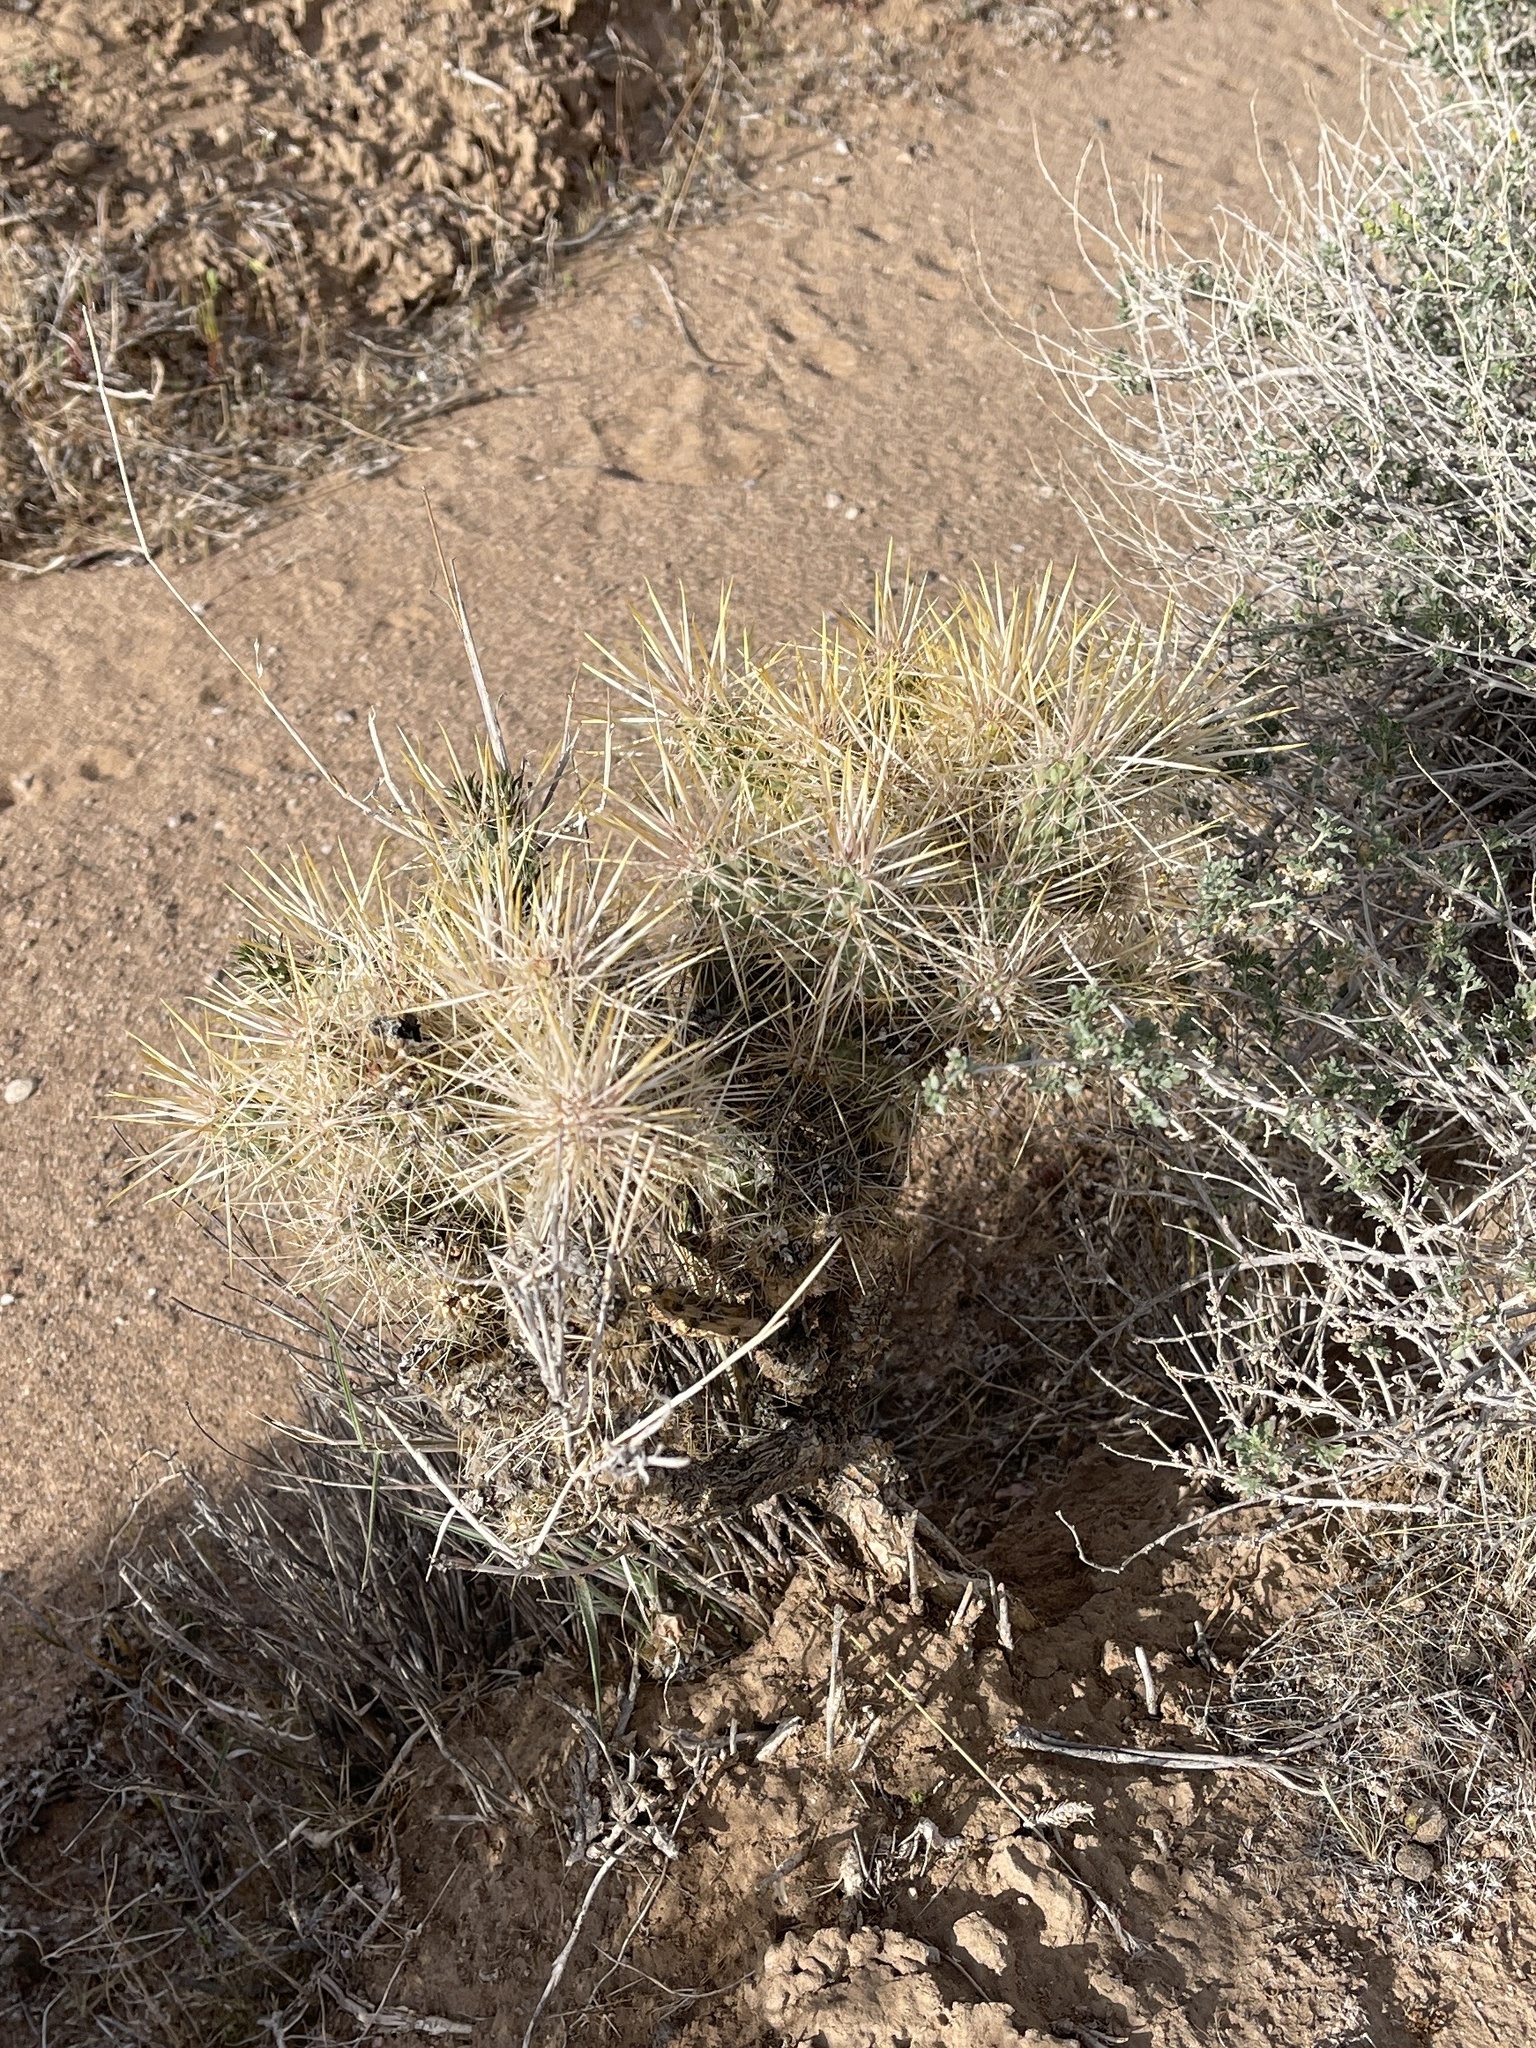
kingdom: Plantae
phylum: Tracheophyta
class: Magnoliopsida
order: Caryophyllales
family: Cactaceae
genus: Cylindropuntia
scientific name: Cylindropuntia echinocarpa
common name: Ground cholla
